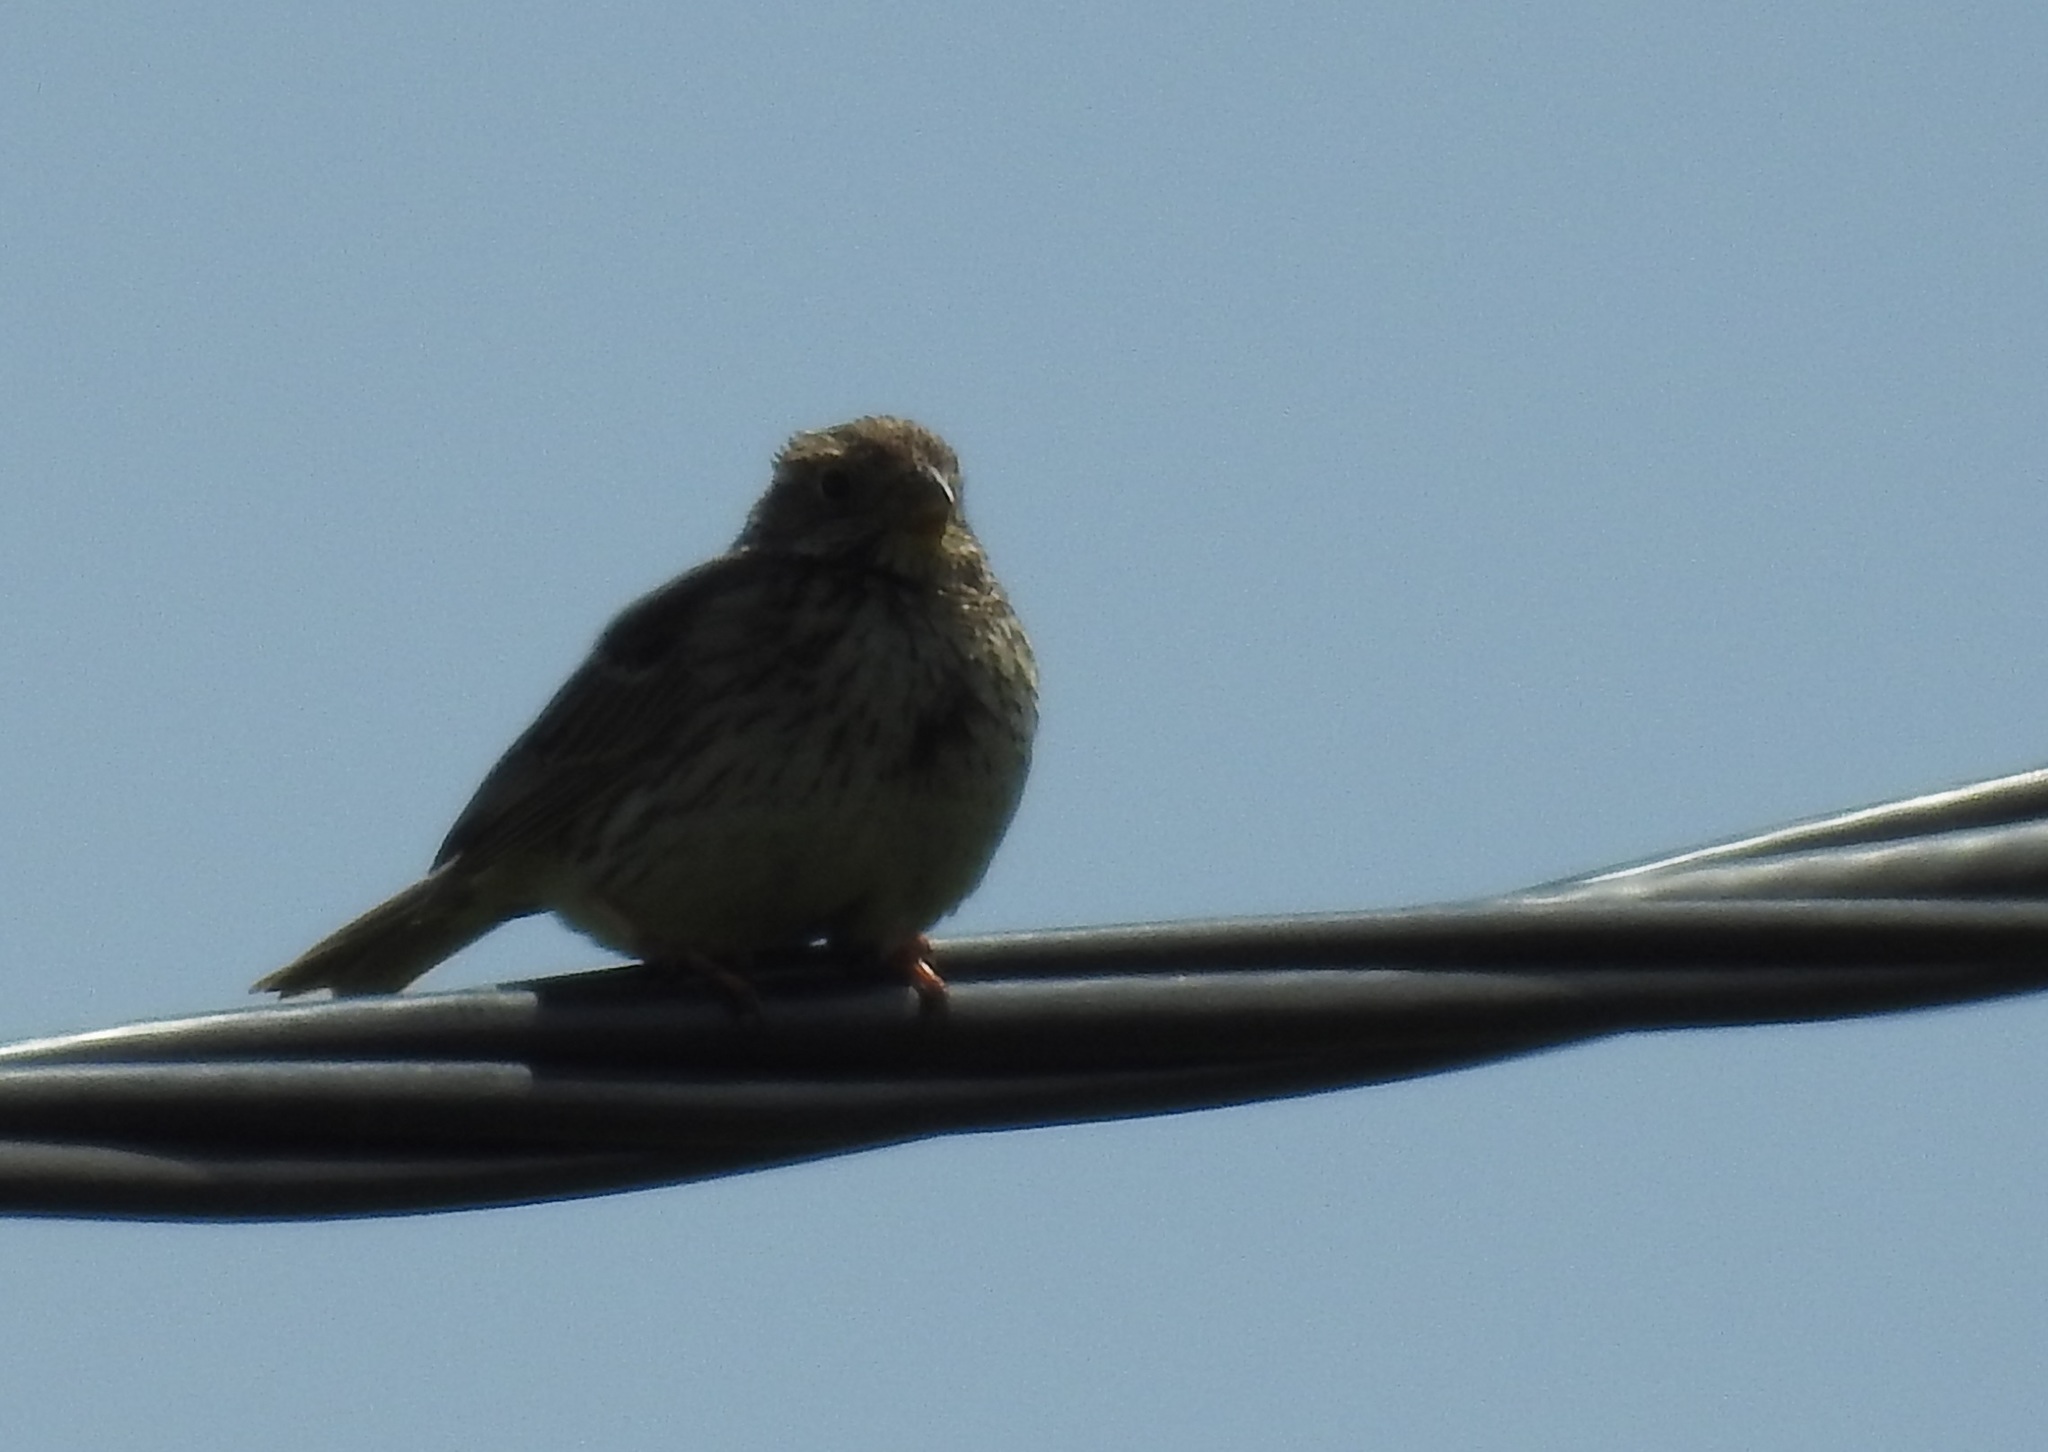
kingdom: Animalia
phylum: Chordata
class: Aves
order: Passeriformes
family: Emberizidae
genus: Emberiza
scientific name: Emberiza calandra
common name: Corn bunting
